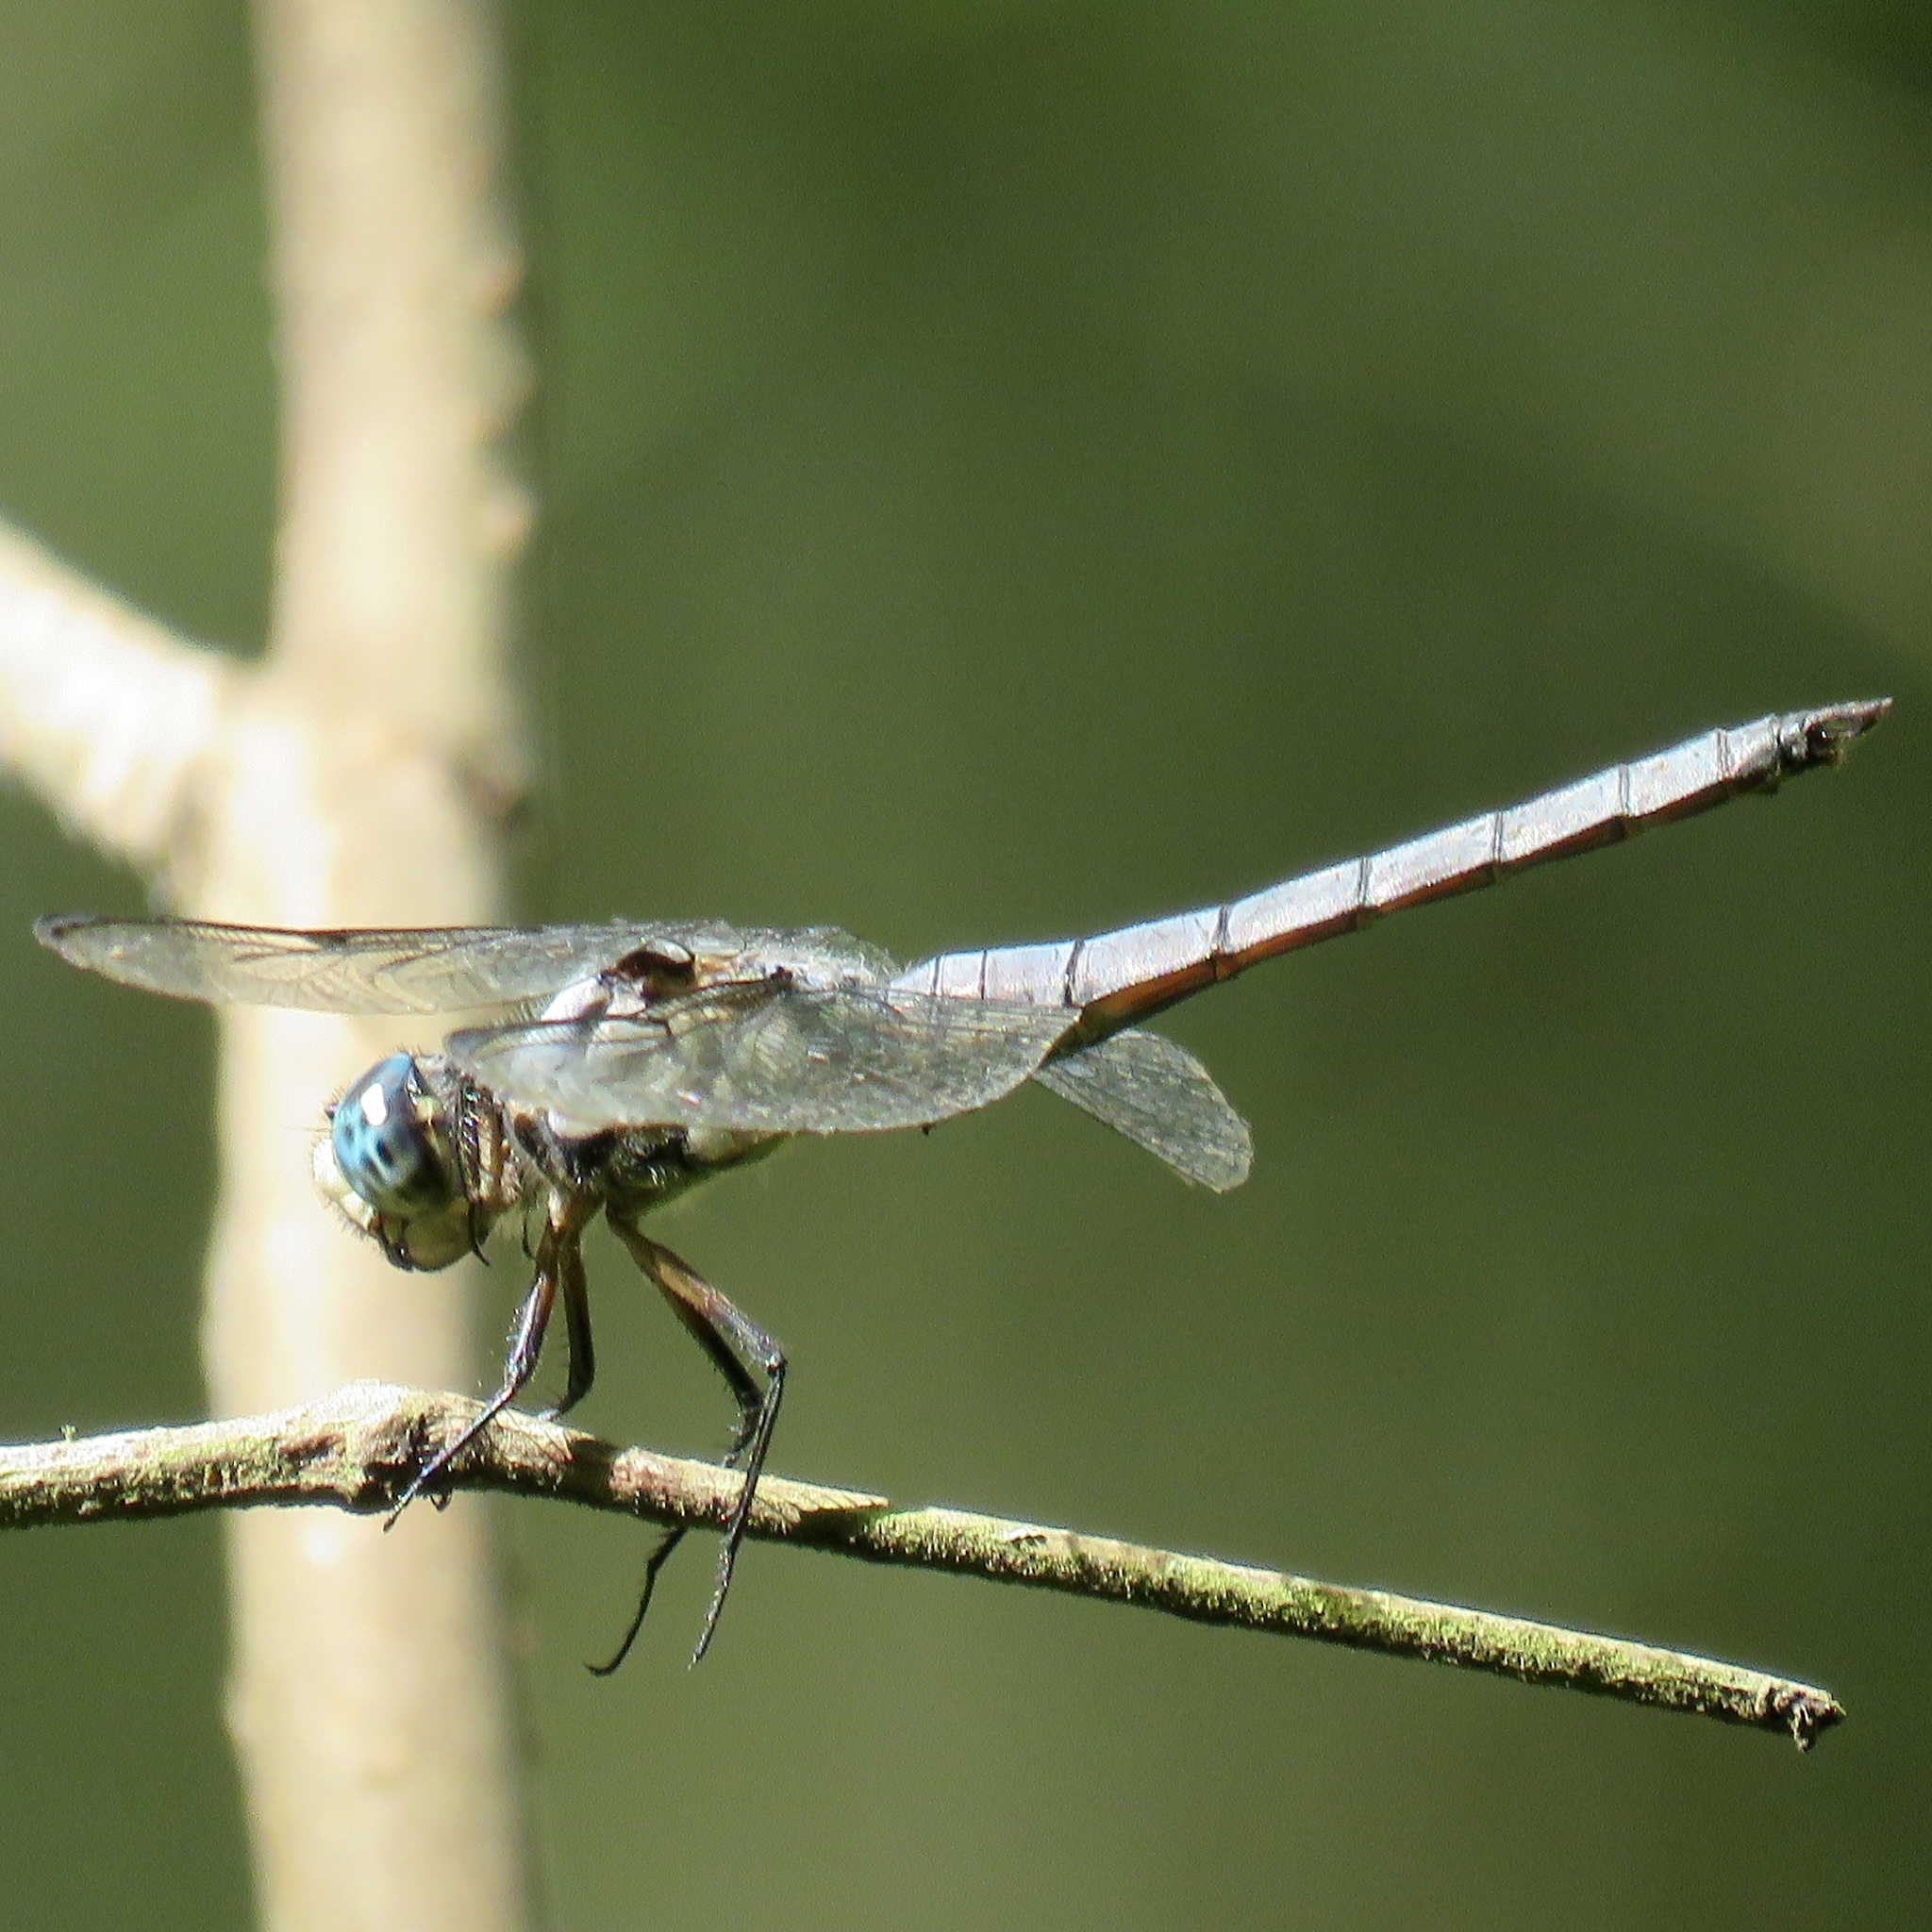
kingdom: Animalia
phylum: Arthropoda
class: Insecta
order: Odonata
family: Libellulidae
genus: Libellula
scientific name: Libellula vibrans
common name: Great blue skimmer
